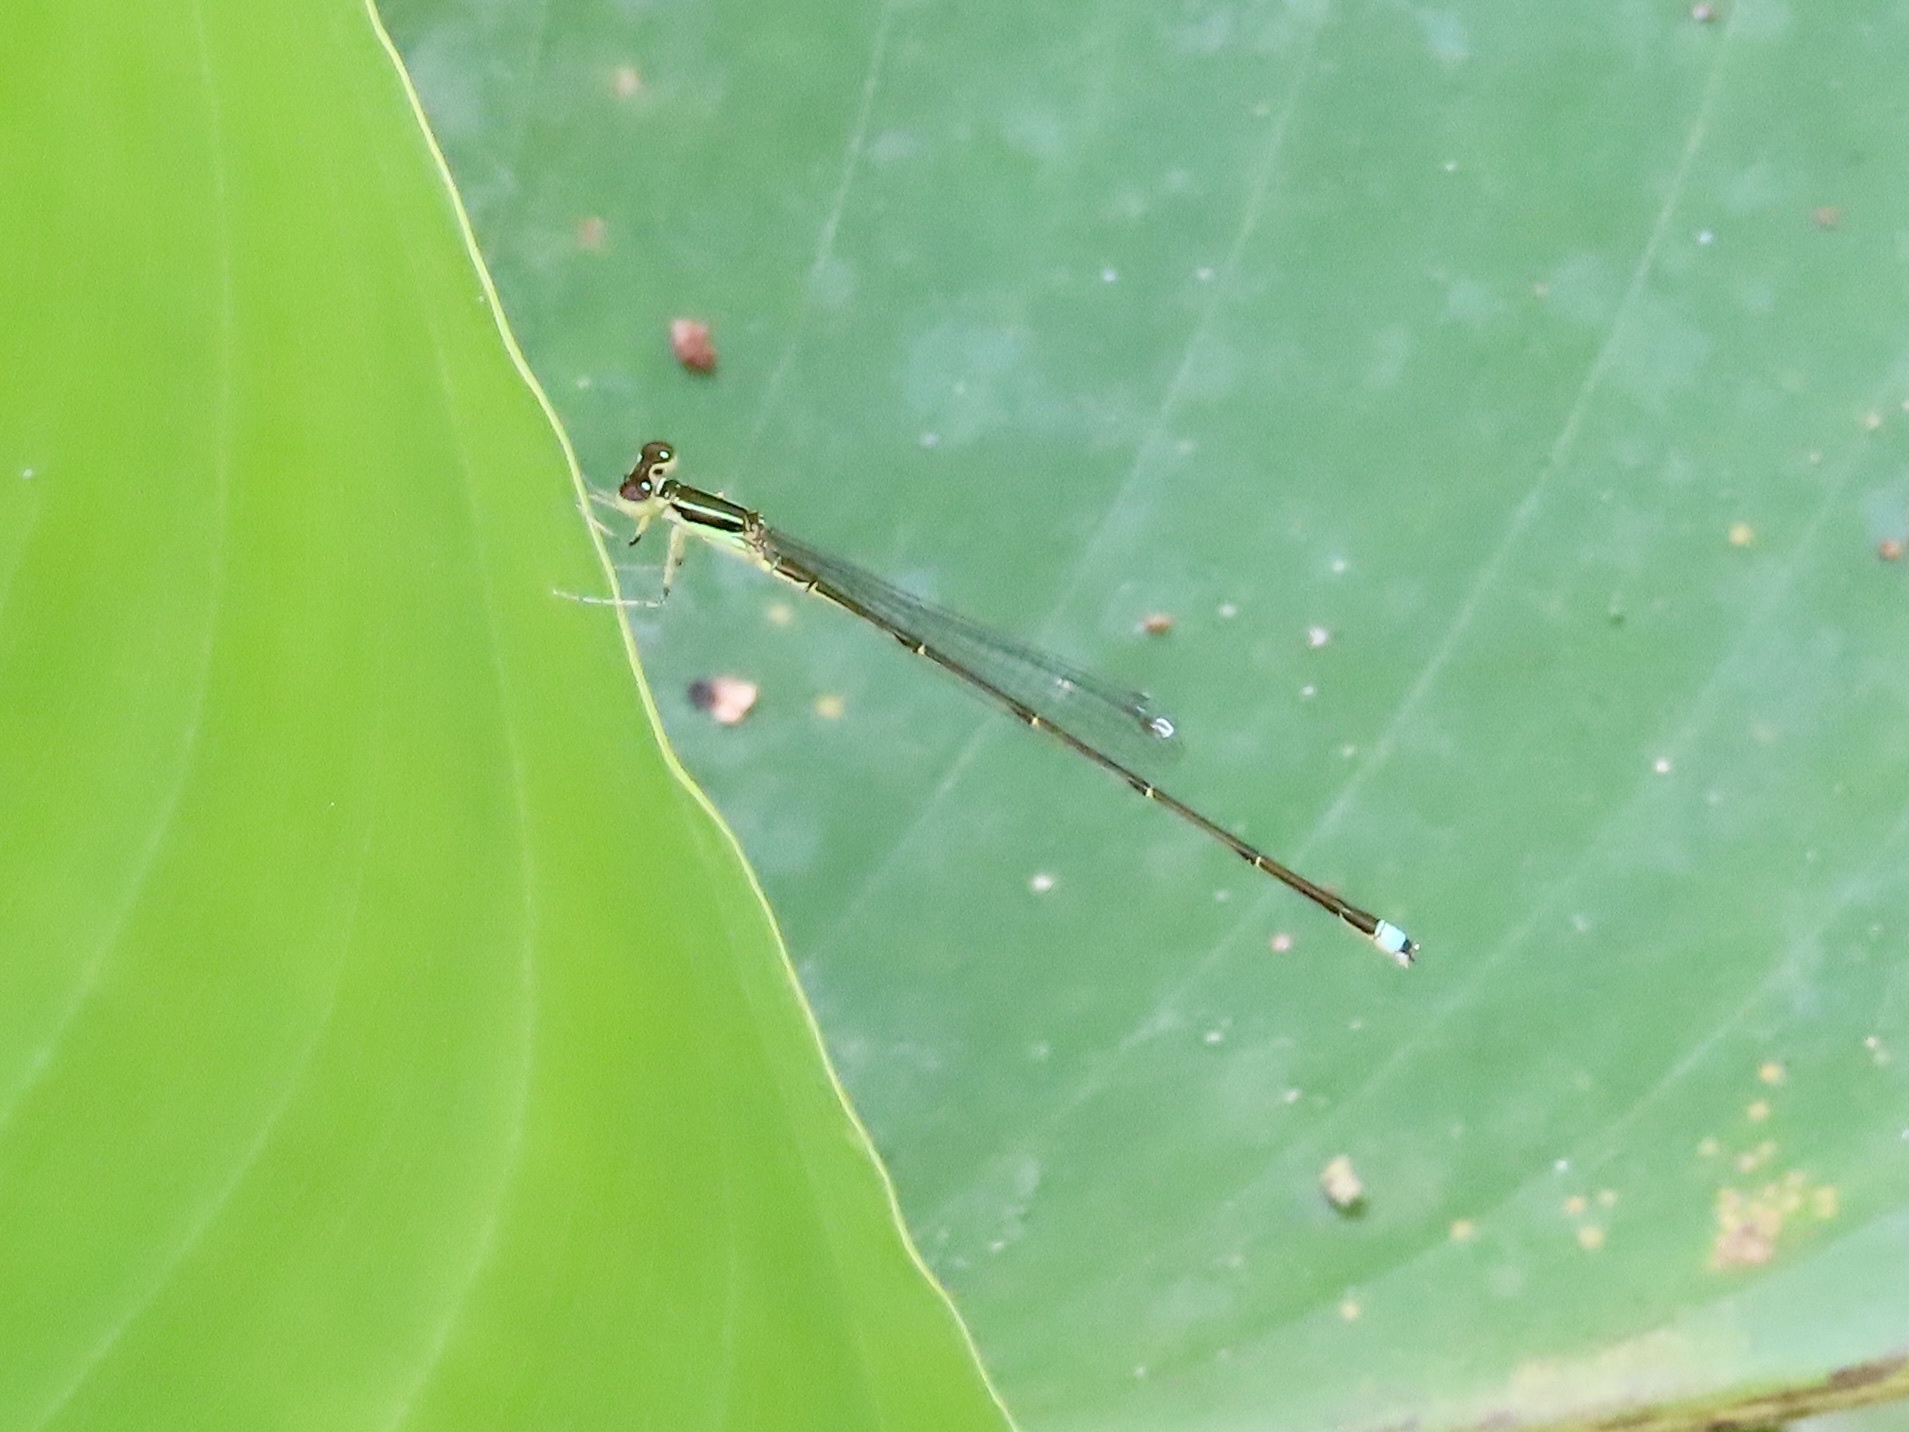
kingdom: Animalia
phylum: Arthropoda
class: Insecta
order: Odonata
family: Coenagrionidae
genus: Ischnura
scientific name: Ischnura prognata
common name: Furtive forktail
